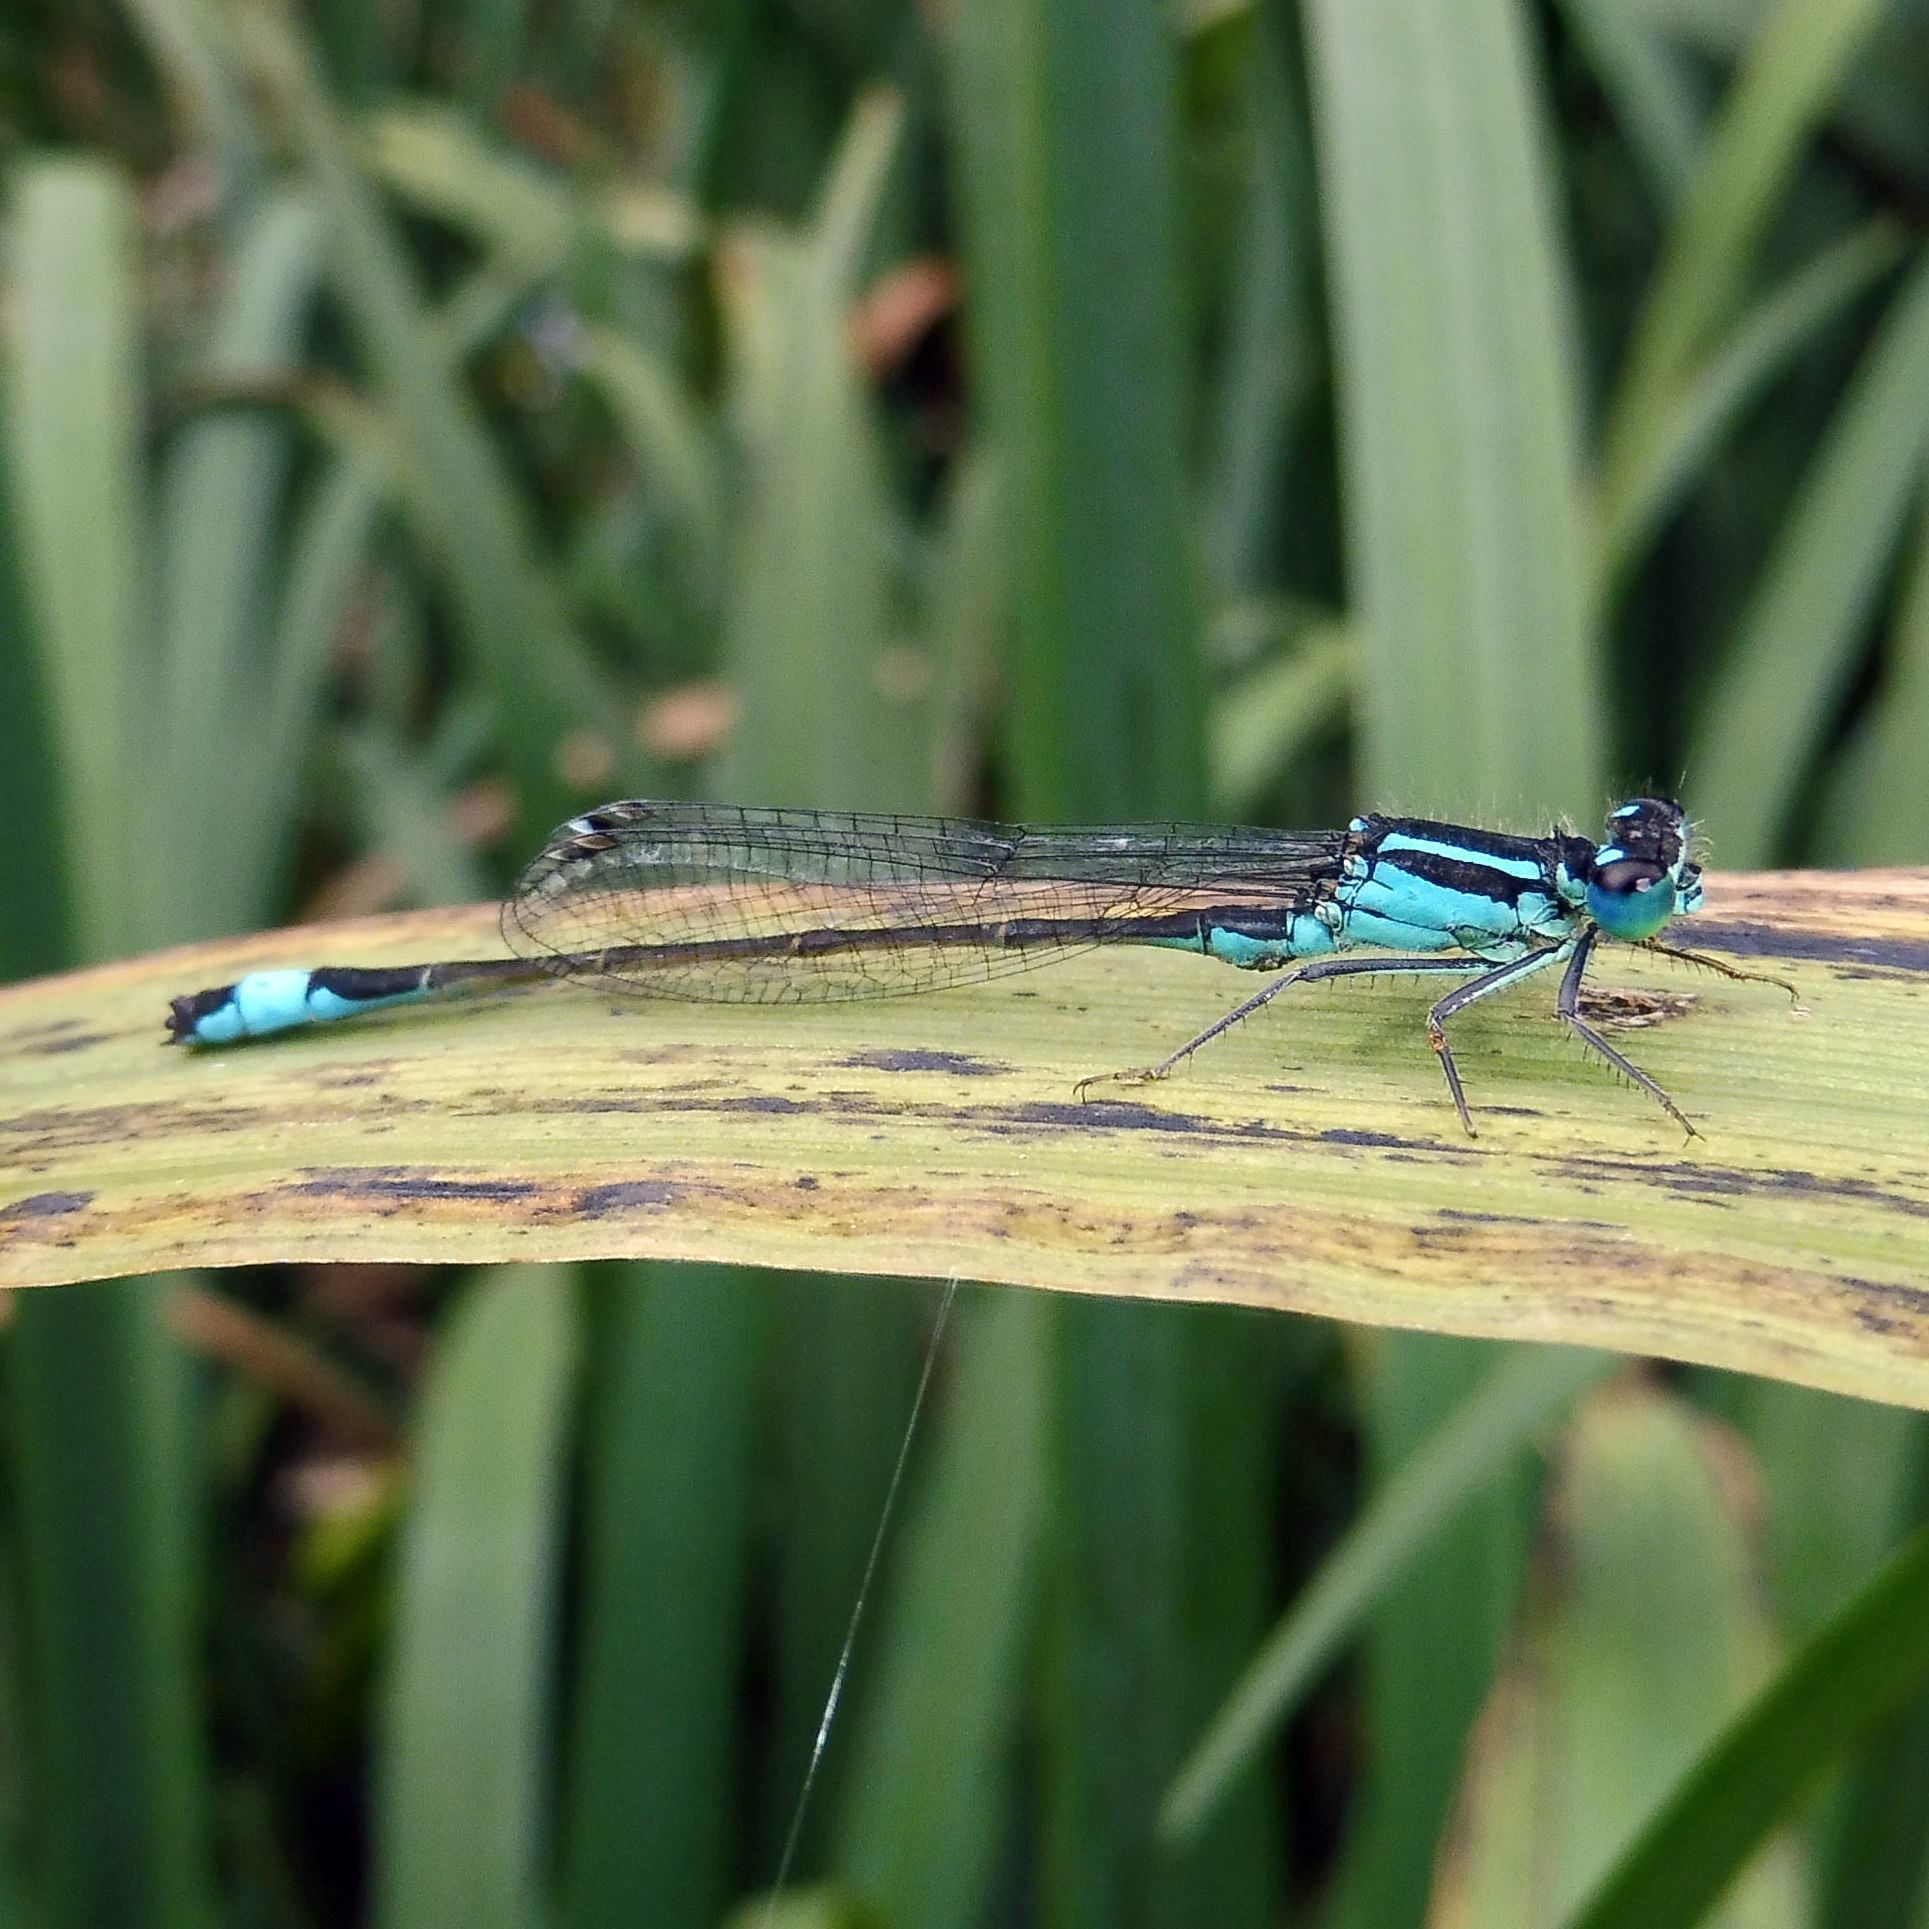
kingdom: Animalia
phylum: Arthropoda
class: Insecta
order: Odonata
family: Coenagrionidae
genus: Ischnura
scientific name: Ischnura elegans
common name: Blue-tailed damselfly
